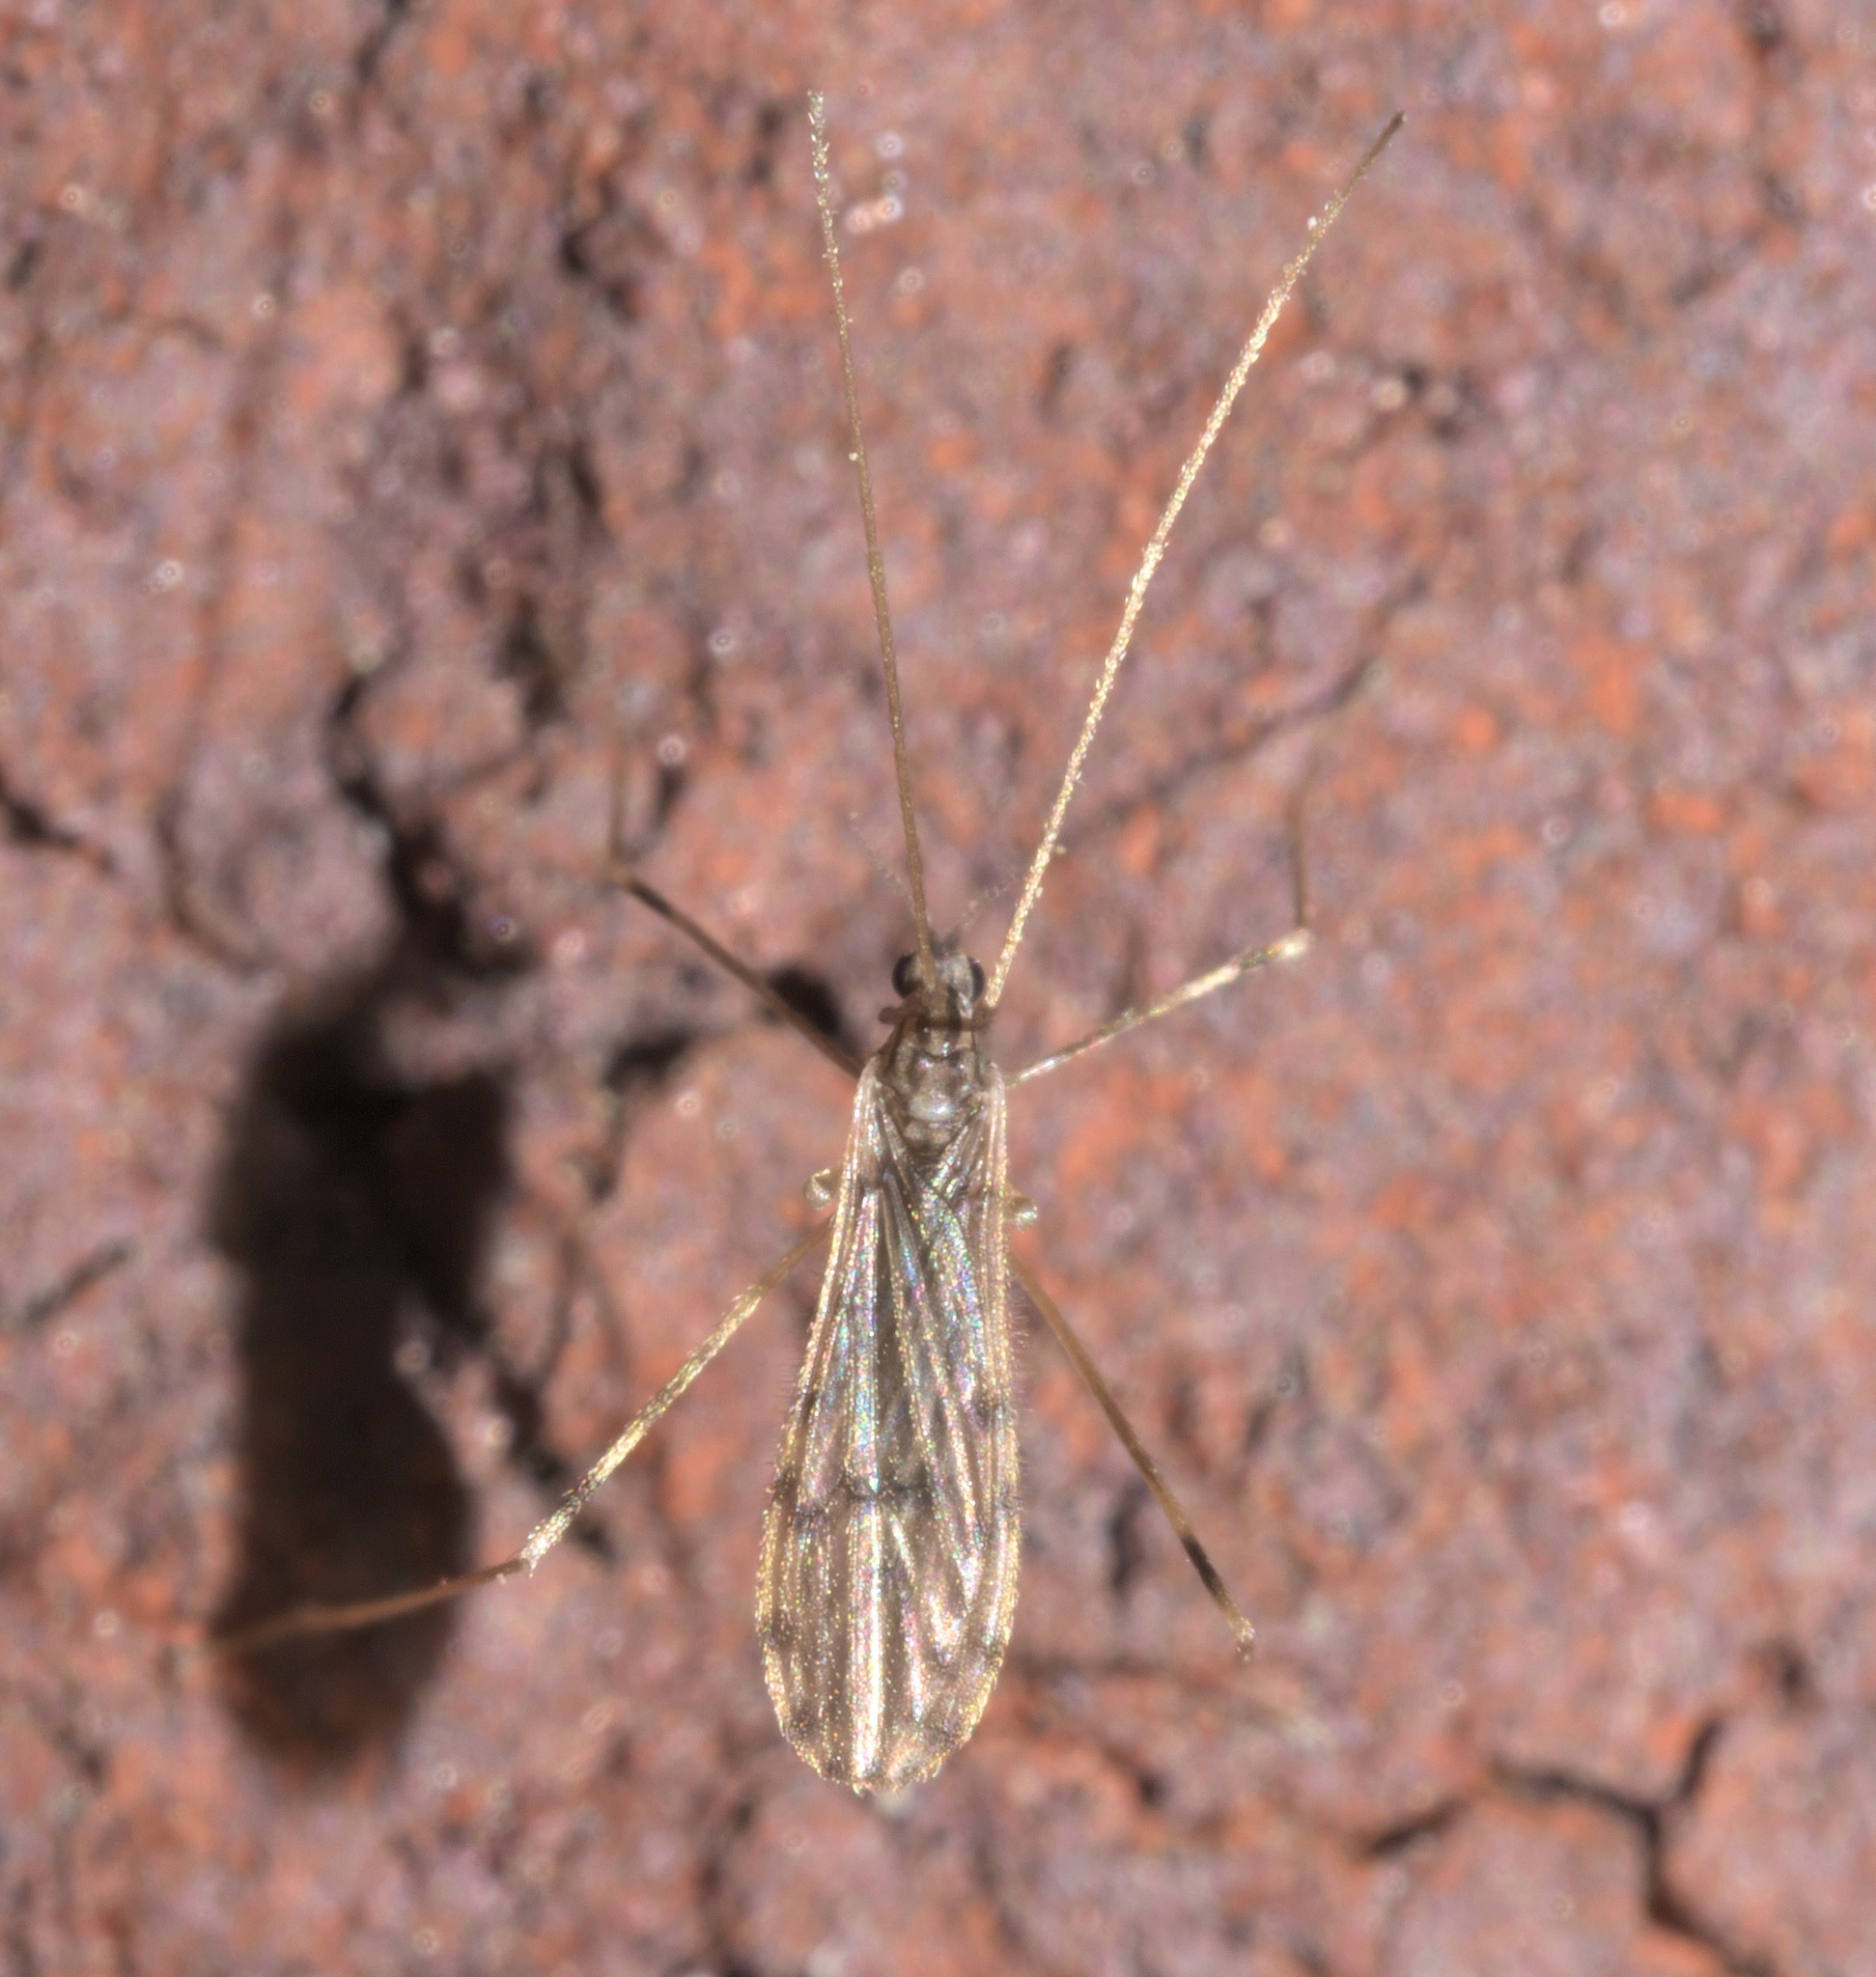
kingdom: Animalia
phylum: Arthropoda
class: Insecta
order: Diptera
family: Limoniidae
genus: Erioptera
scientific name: Erioptera parva
